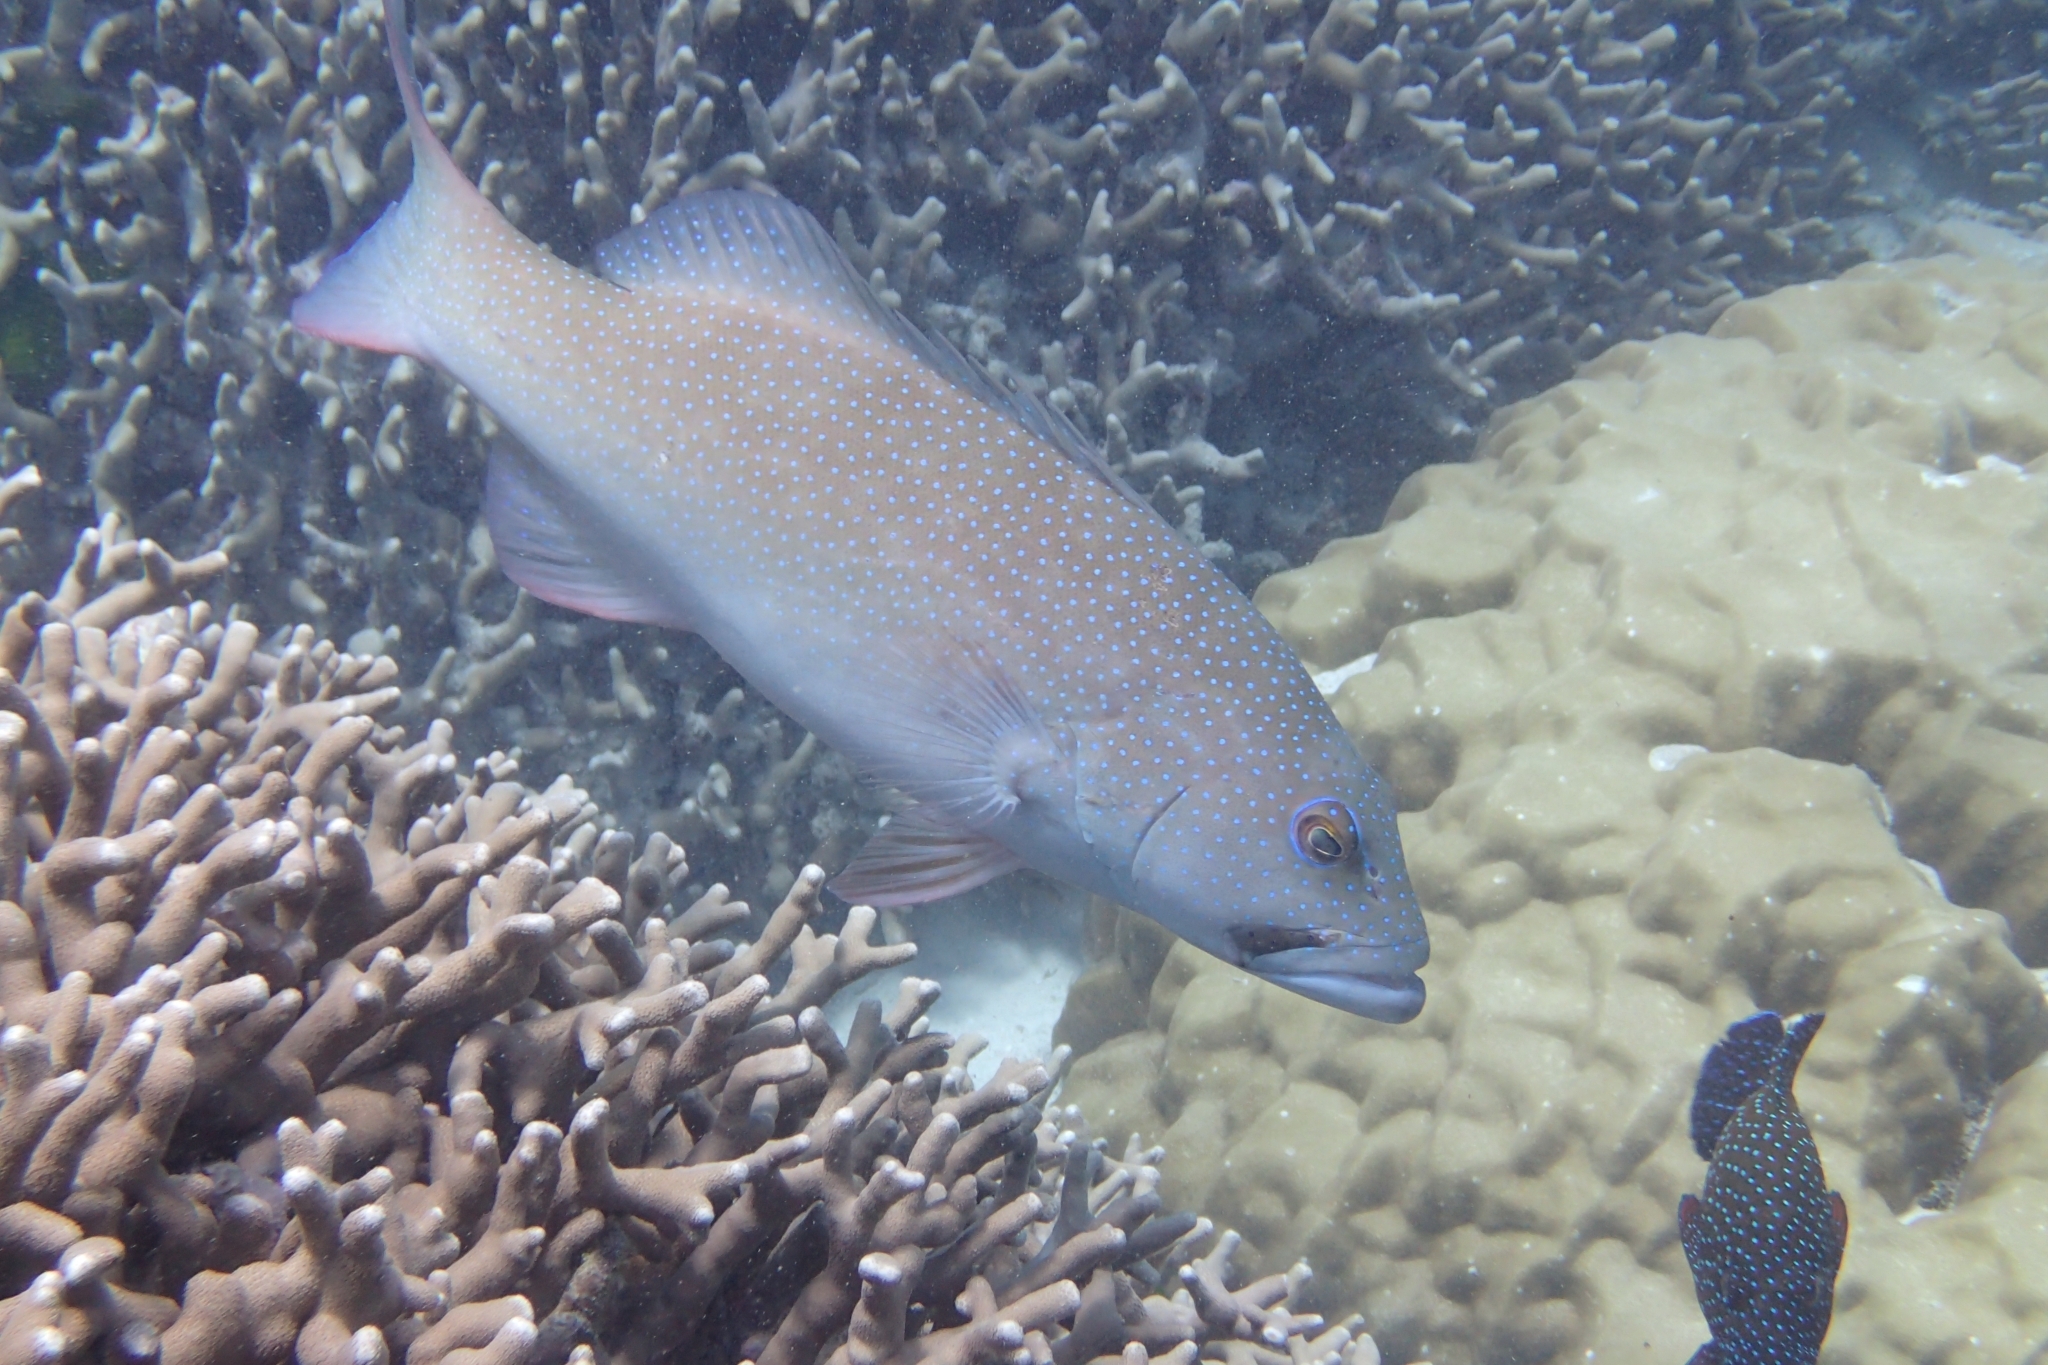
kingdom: Animalia
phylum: Chordata
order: Perciformes
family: Serranidae
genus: Plectropomus
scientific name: Plectropomus leopardus
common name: Coral trout
